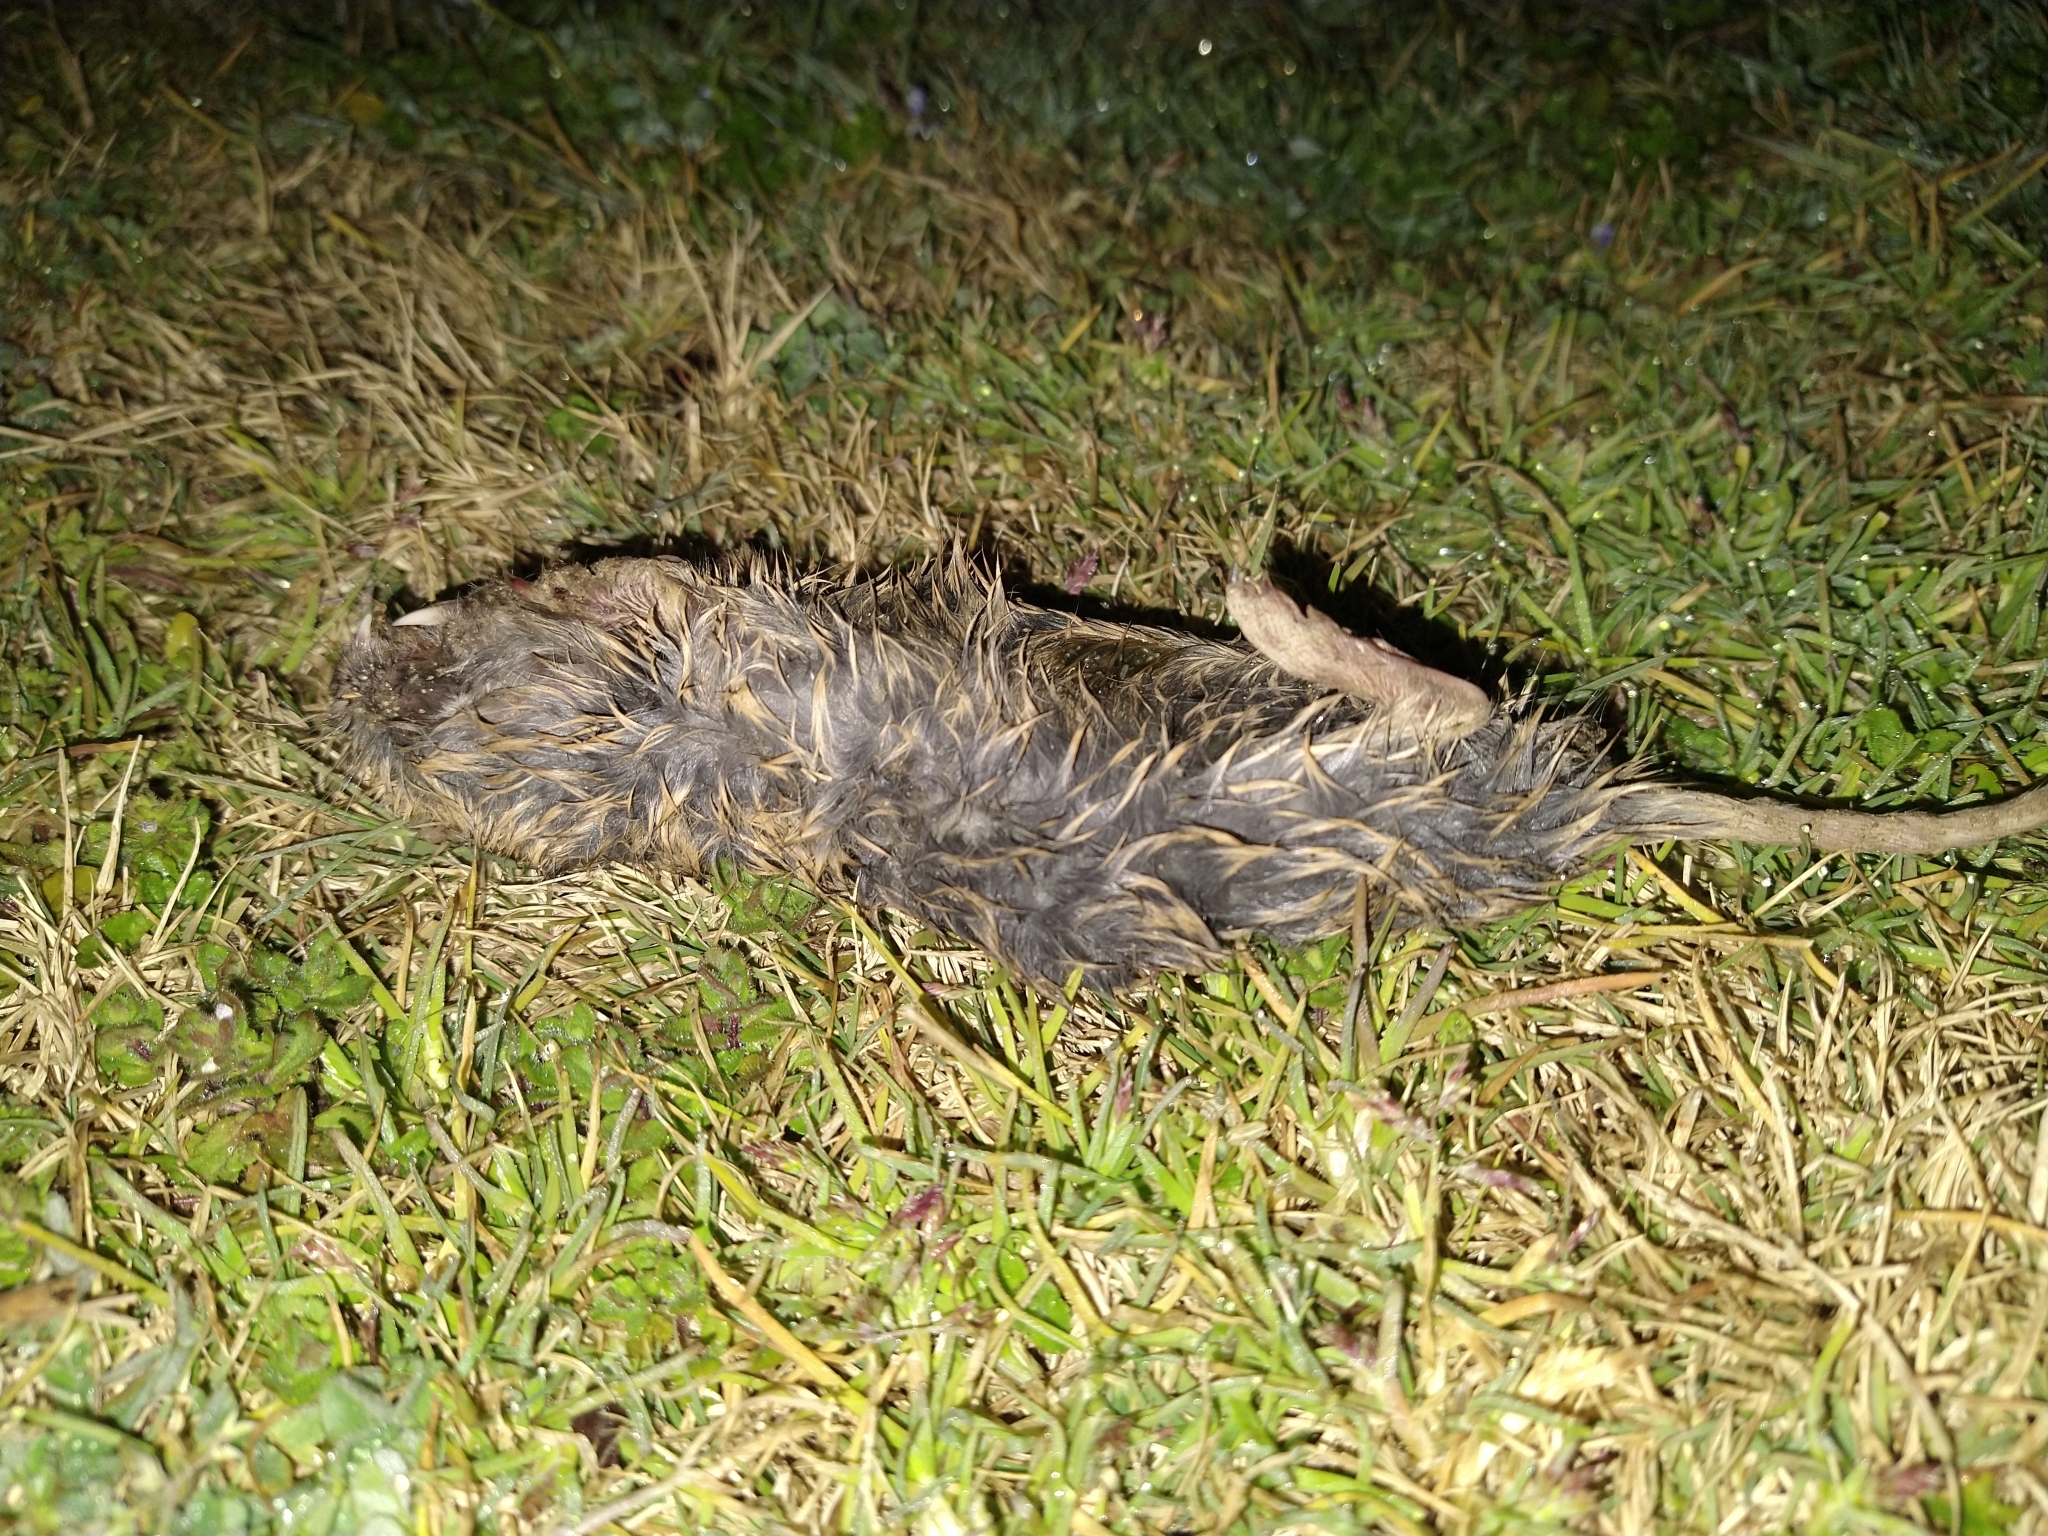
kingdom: Animalia
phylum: Chordata
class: Mammalia
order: Rodentia
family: Geomyidae
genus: Thomomys
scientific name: Thomomys bottae
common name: Botta's pocket gopher
